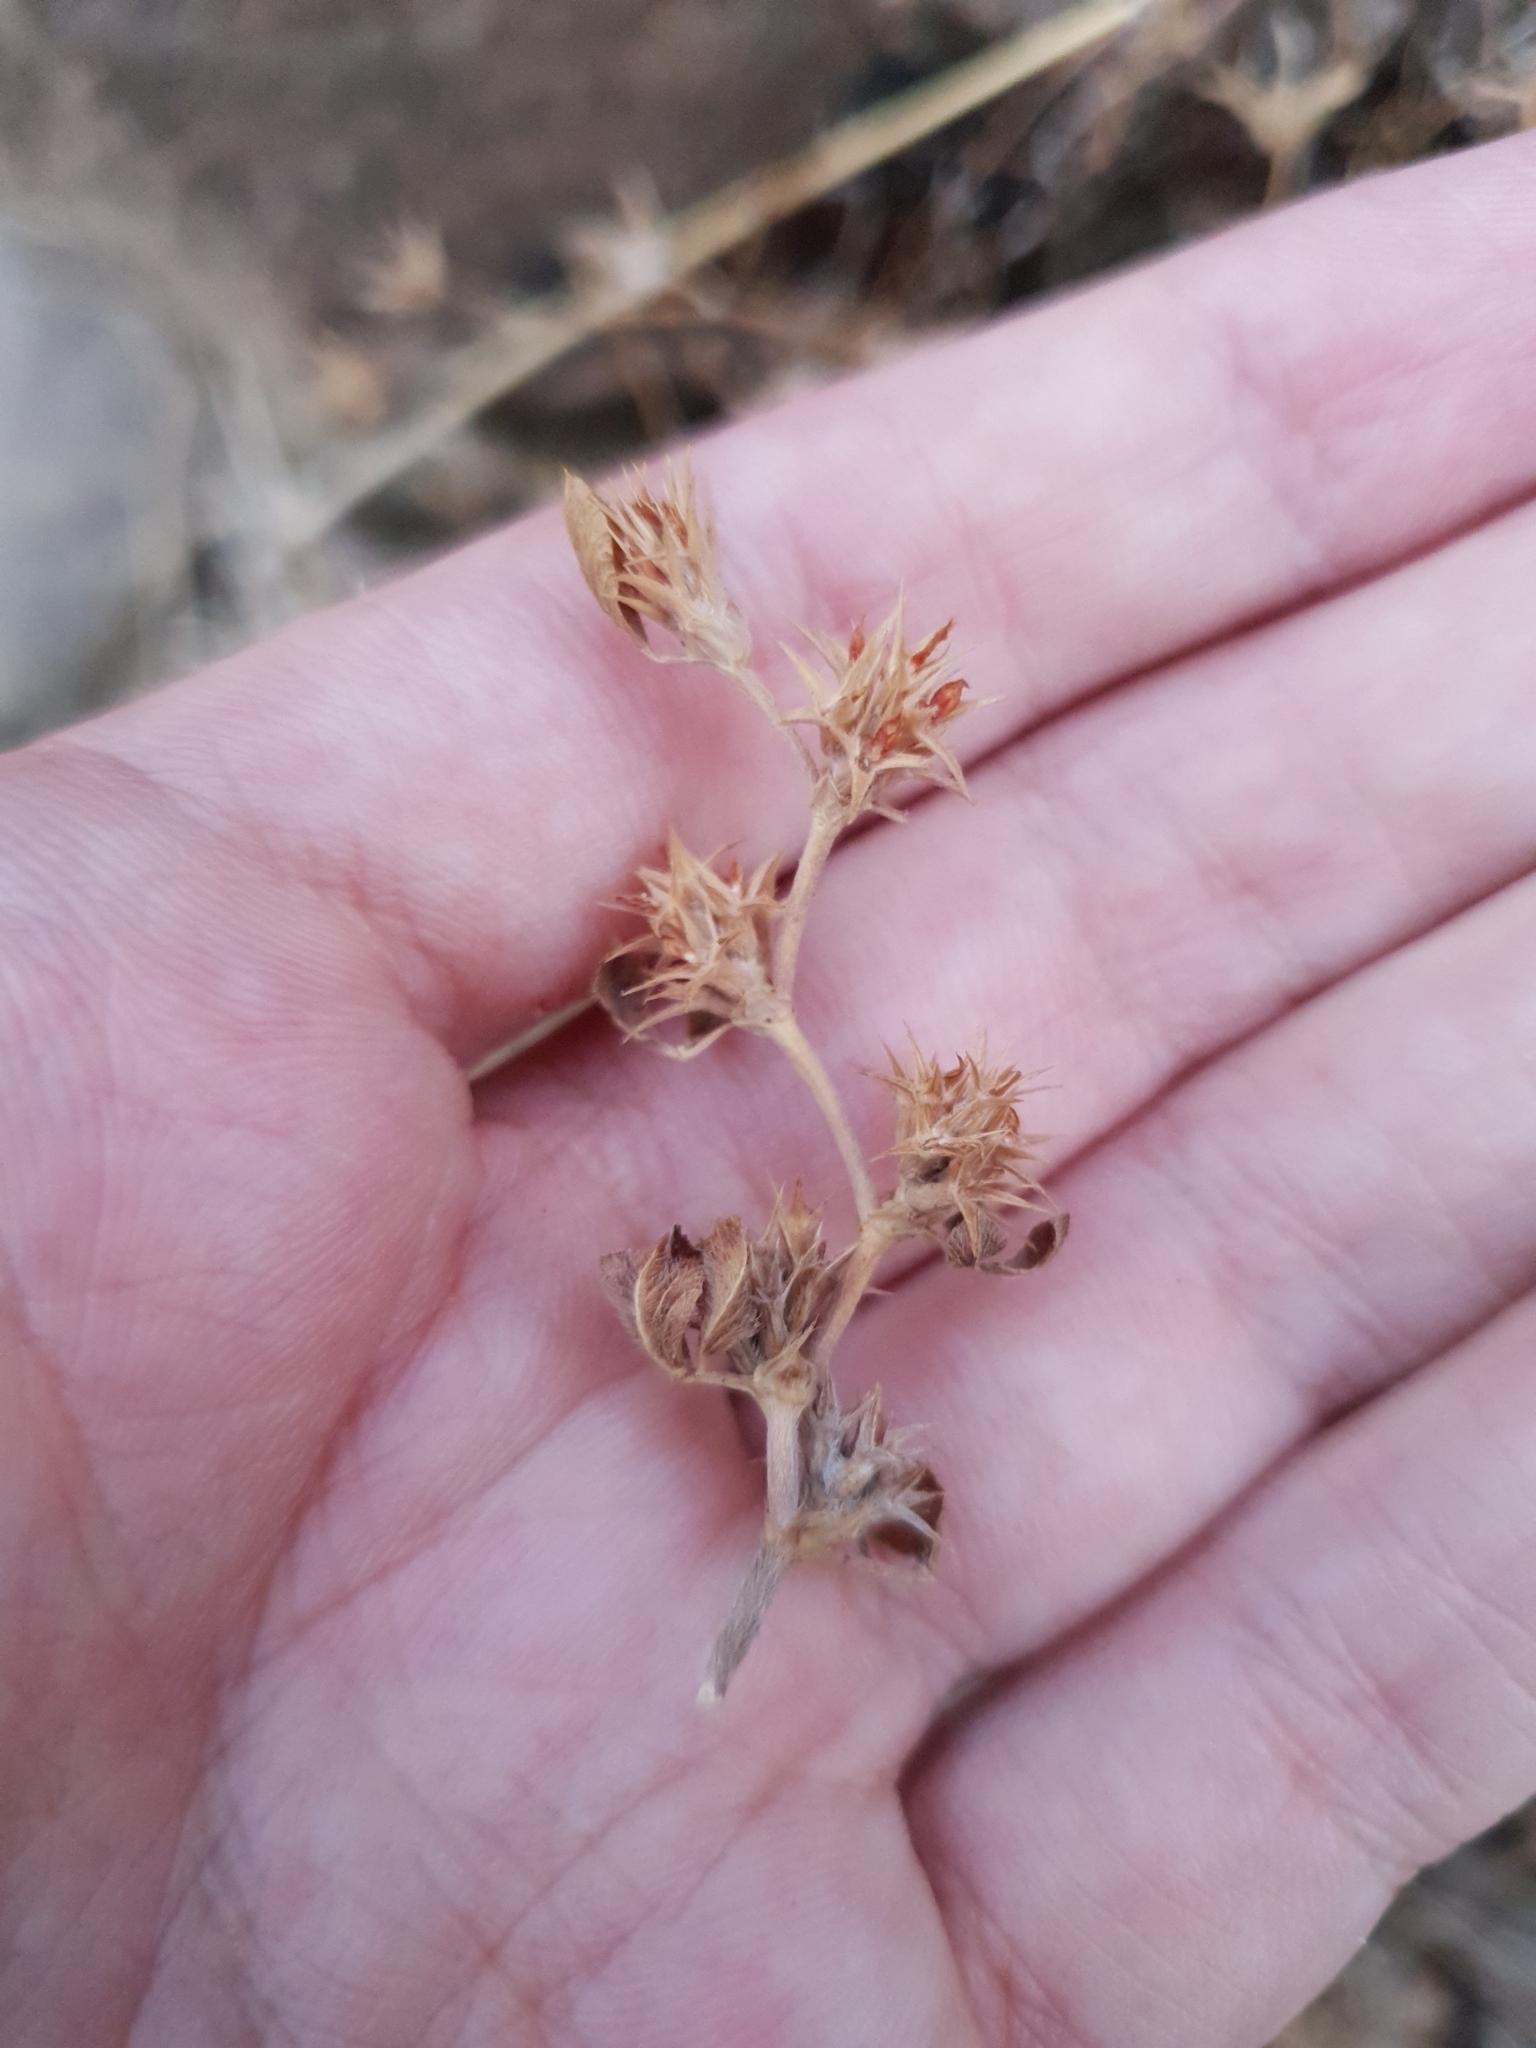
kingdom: Plantae
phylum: Tracheophyta
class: Magnoliopsida
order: Fabales
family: Fabaceae
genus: Trifolium
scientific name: Trifolium scabrum
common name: Rough clover
